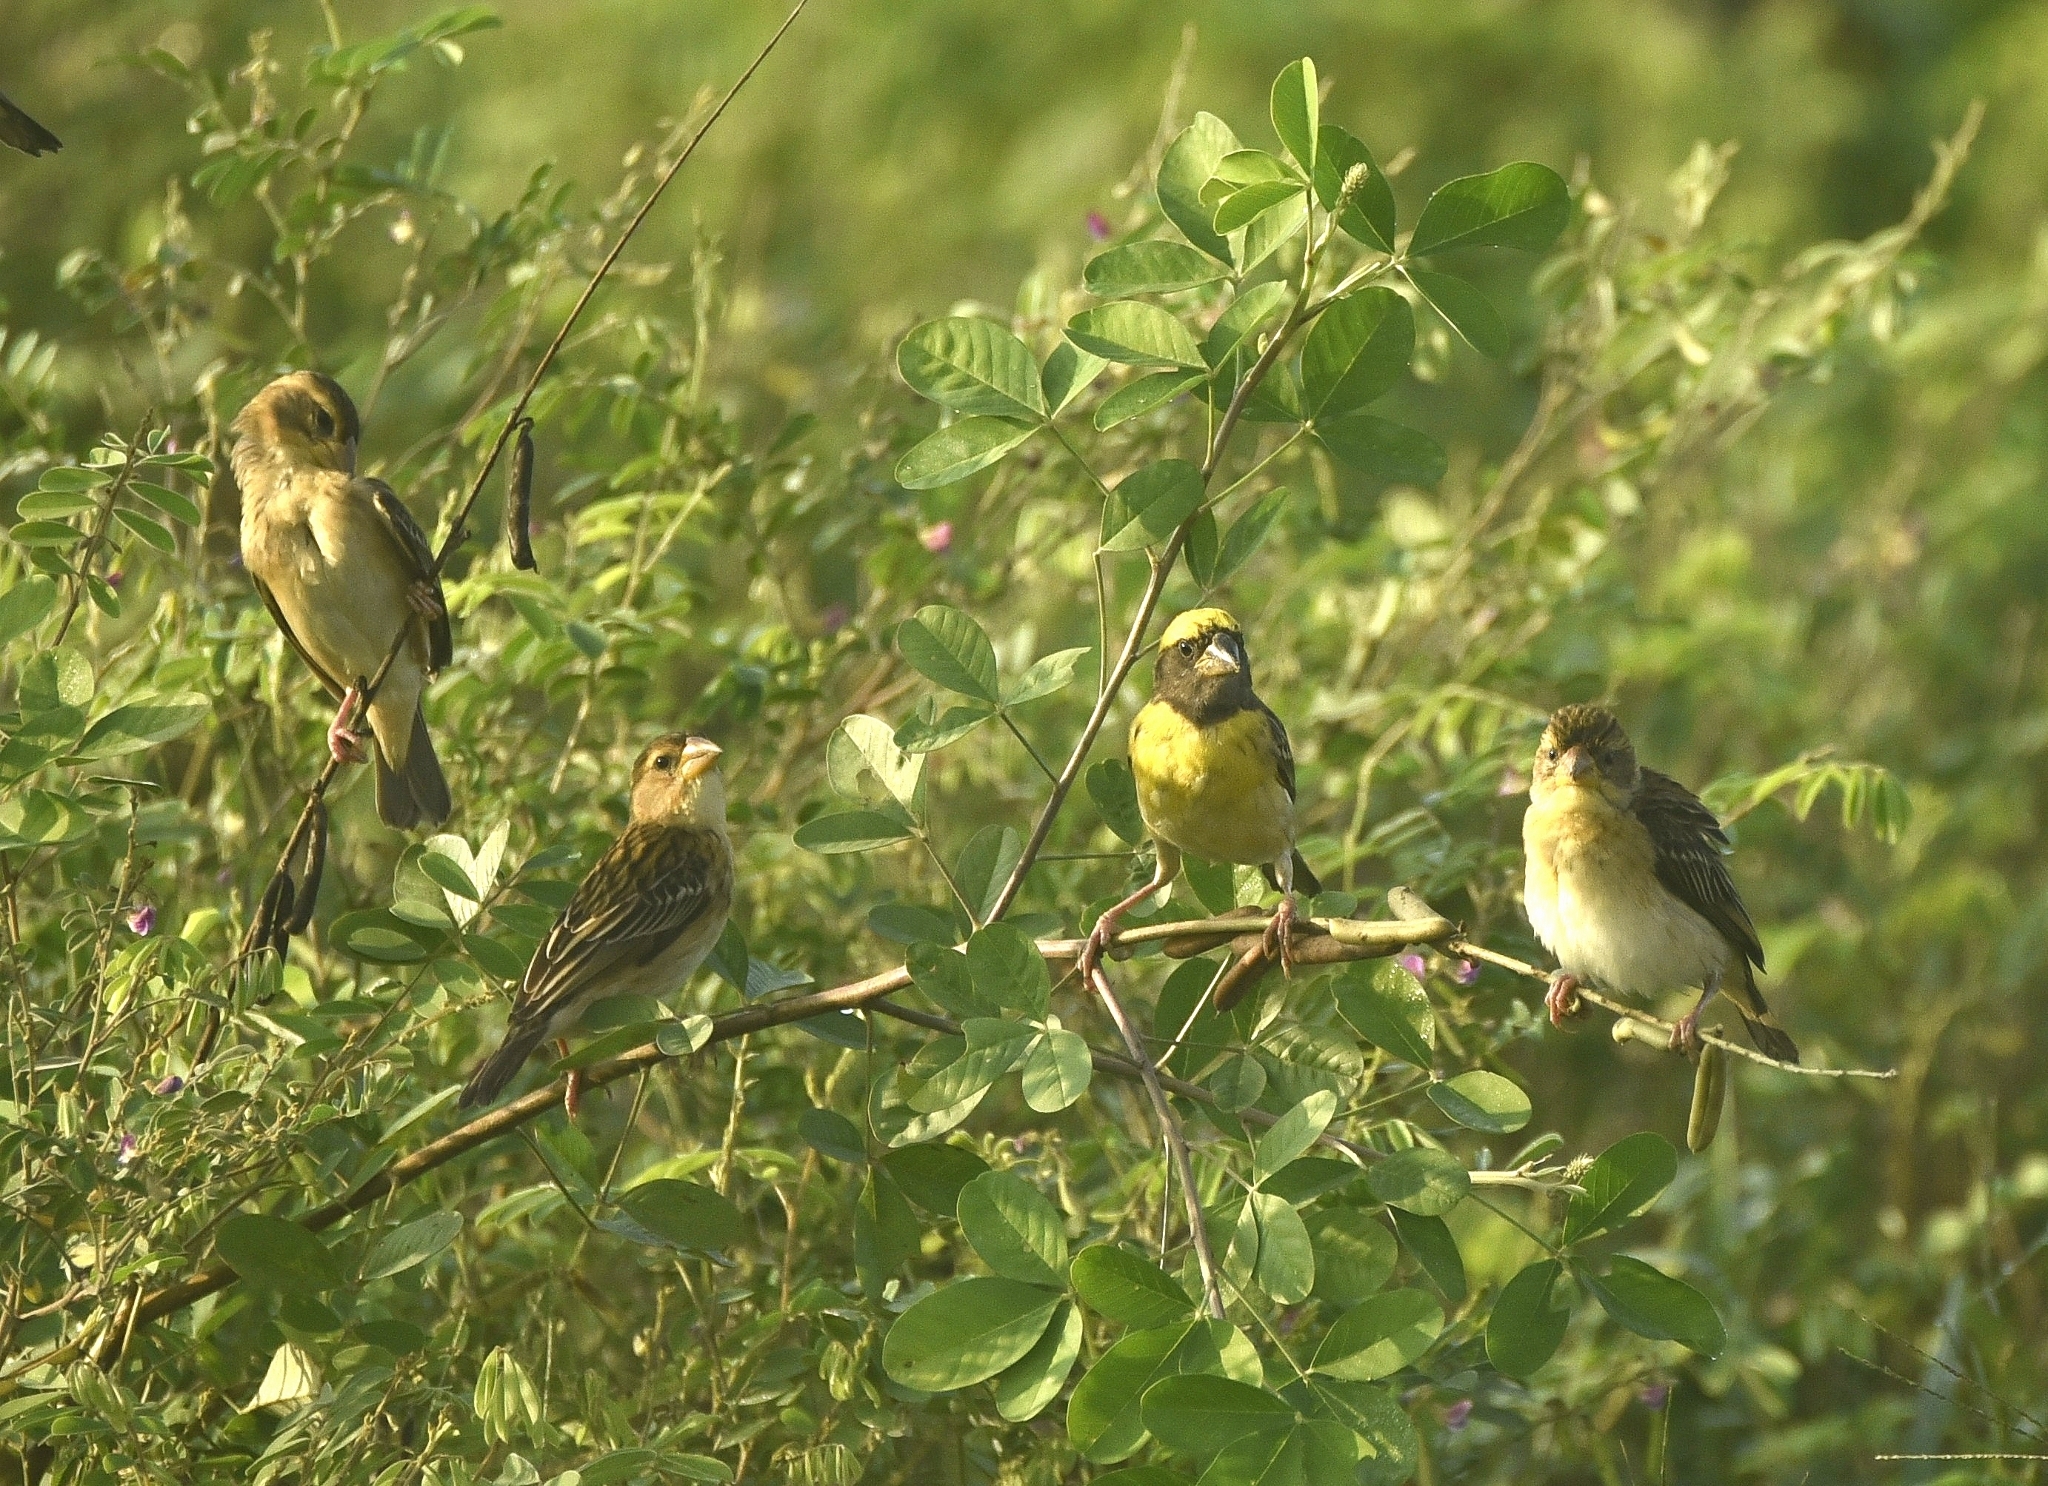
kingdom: Animalia
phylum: Chordata
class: Aves
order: Passeriformes
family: Ploceidae
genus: Ploceus
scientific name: Ploceus philippinus
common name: Baya weaver
